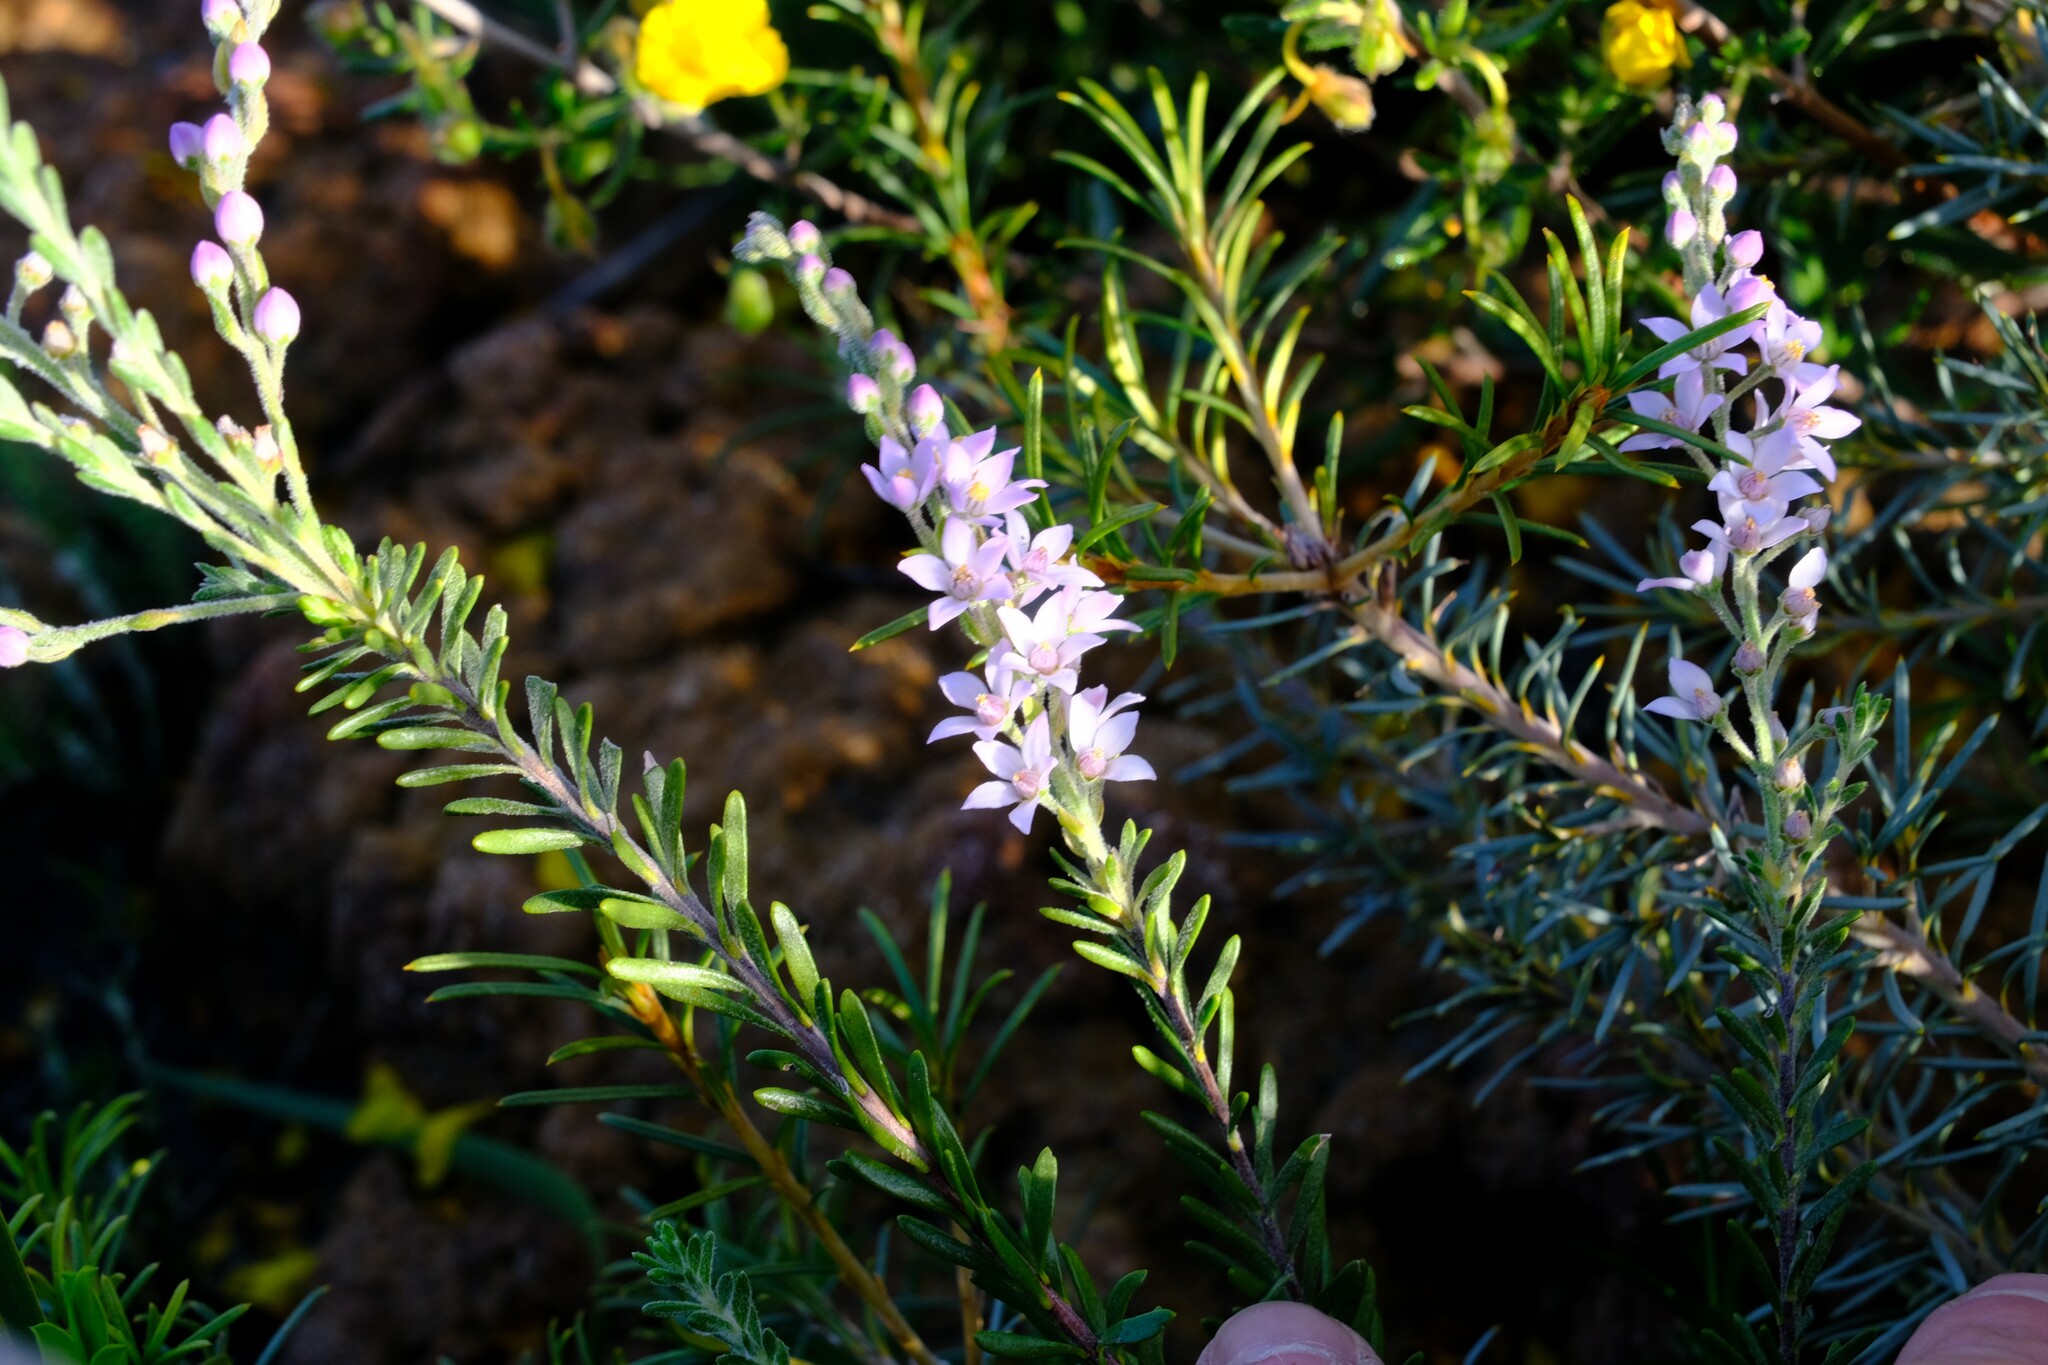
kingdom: Plantae
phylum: Tracheophyta
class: Magnoliopsida
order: Sapindales
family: Rutaceae
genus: Philotheca
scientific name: Philotheca spicata
